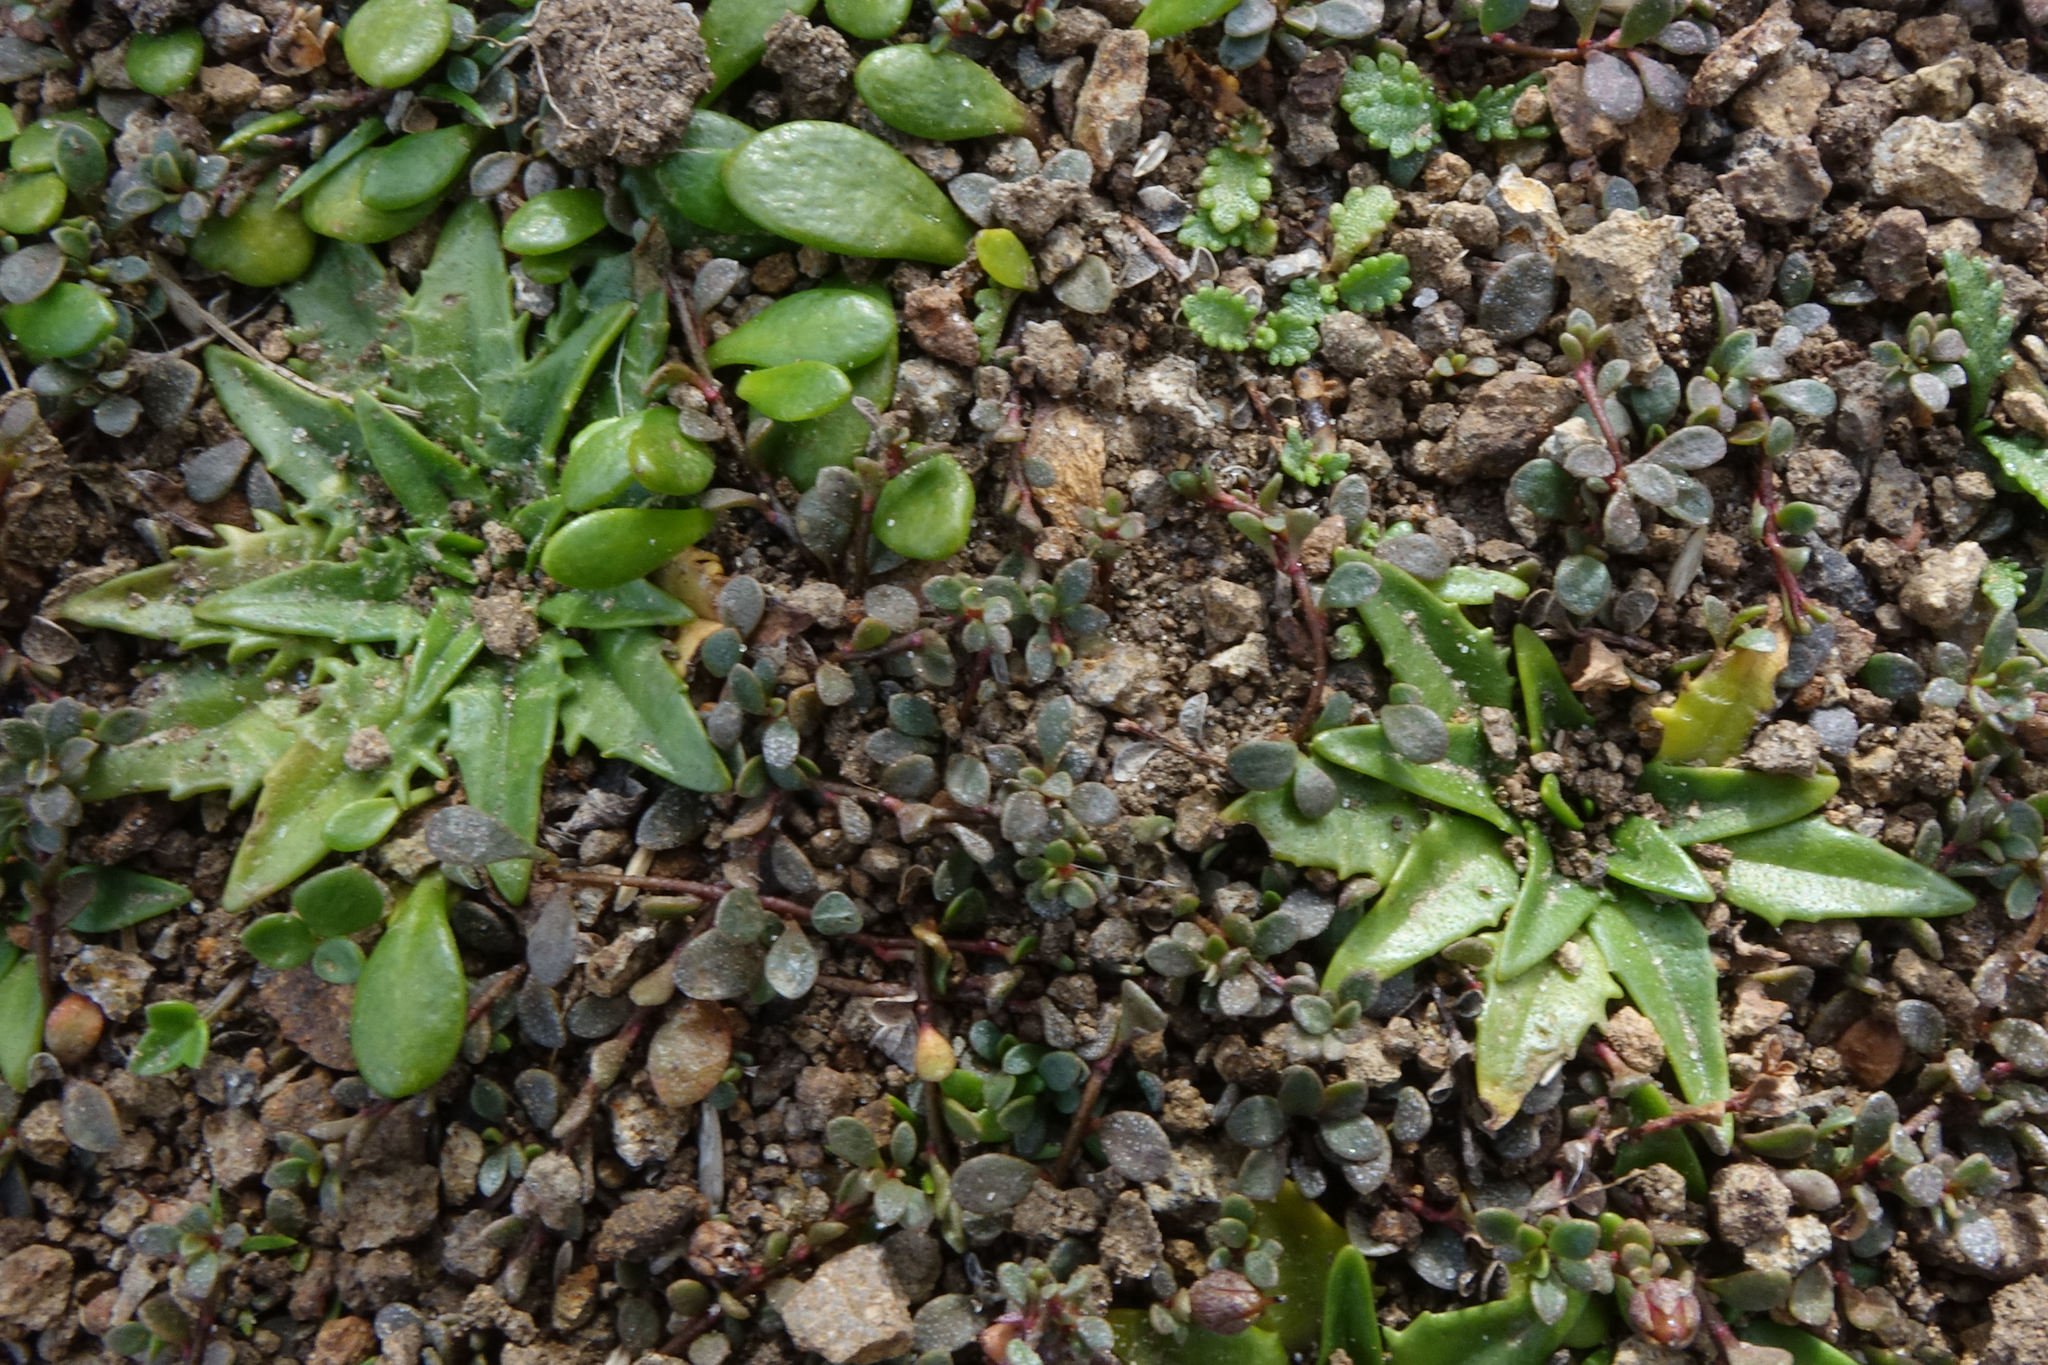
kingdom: Plantae
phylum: Tracheophyta
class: Magnoliopsida
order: Lamiales
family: Plantaginaceae
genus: Plantago
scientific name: Plantago triandra
